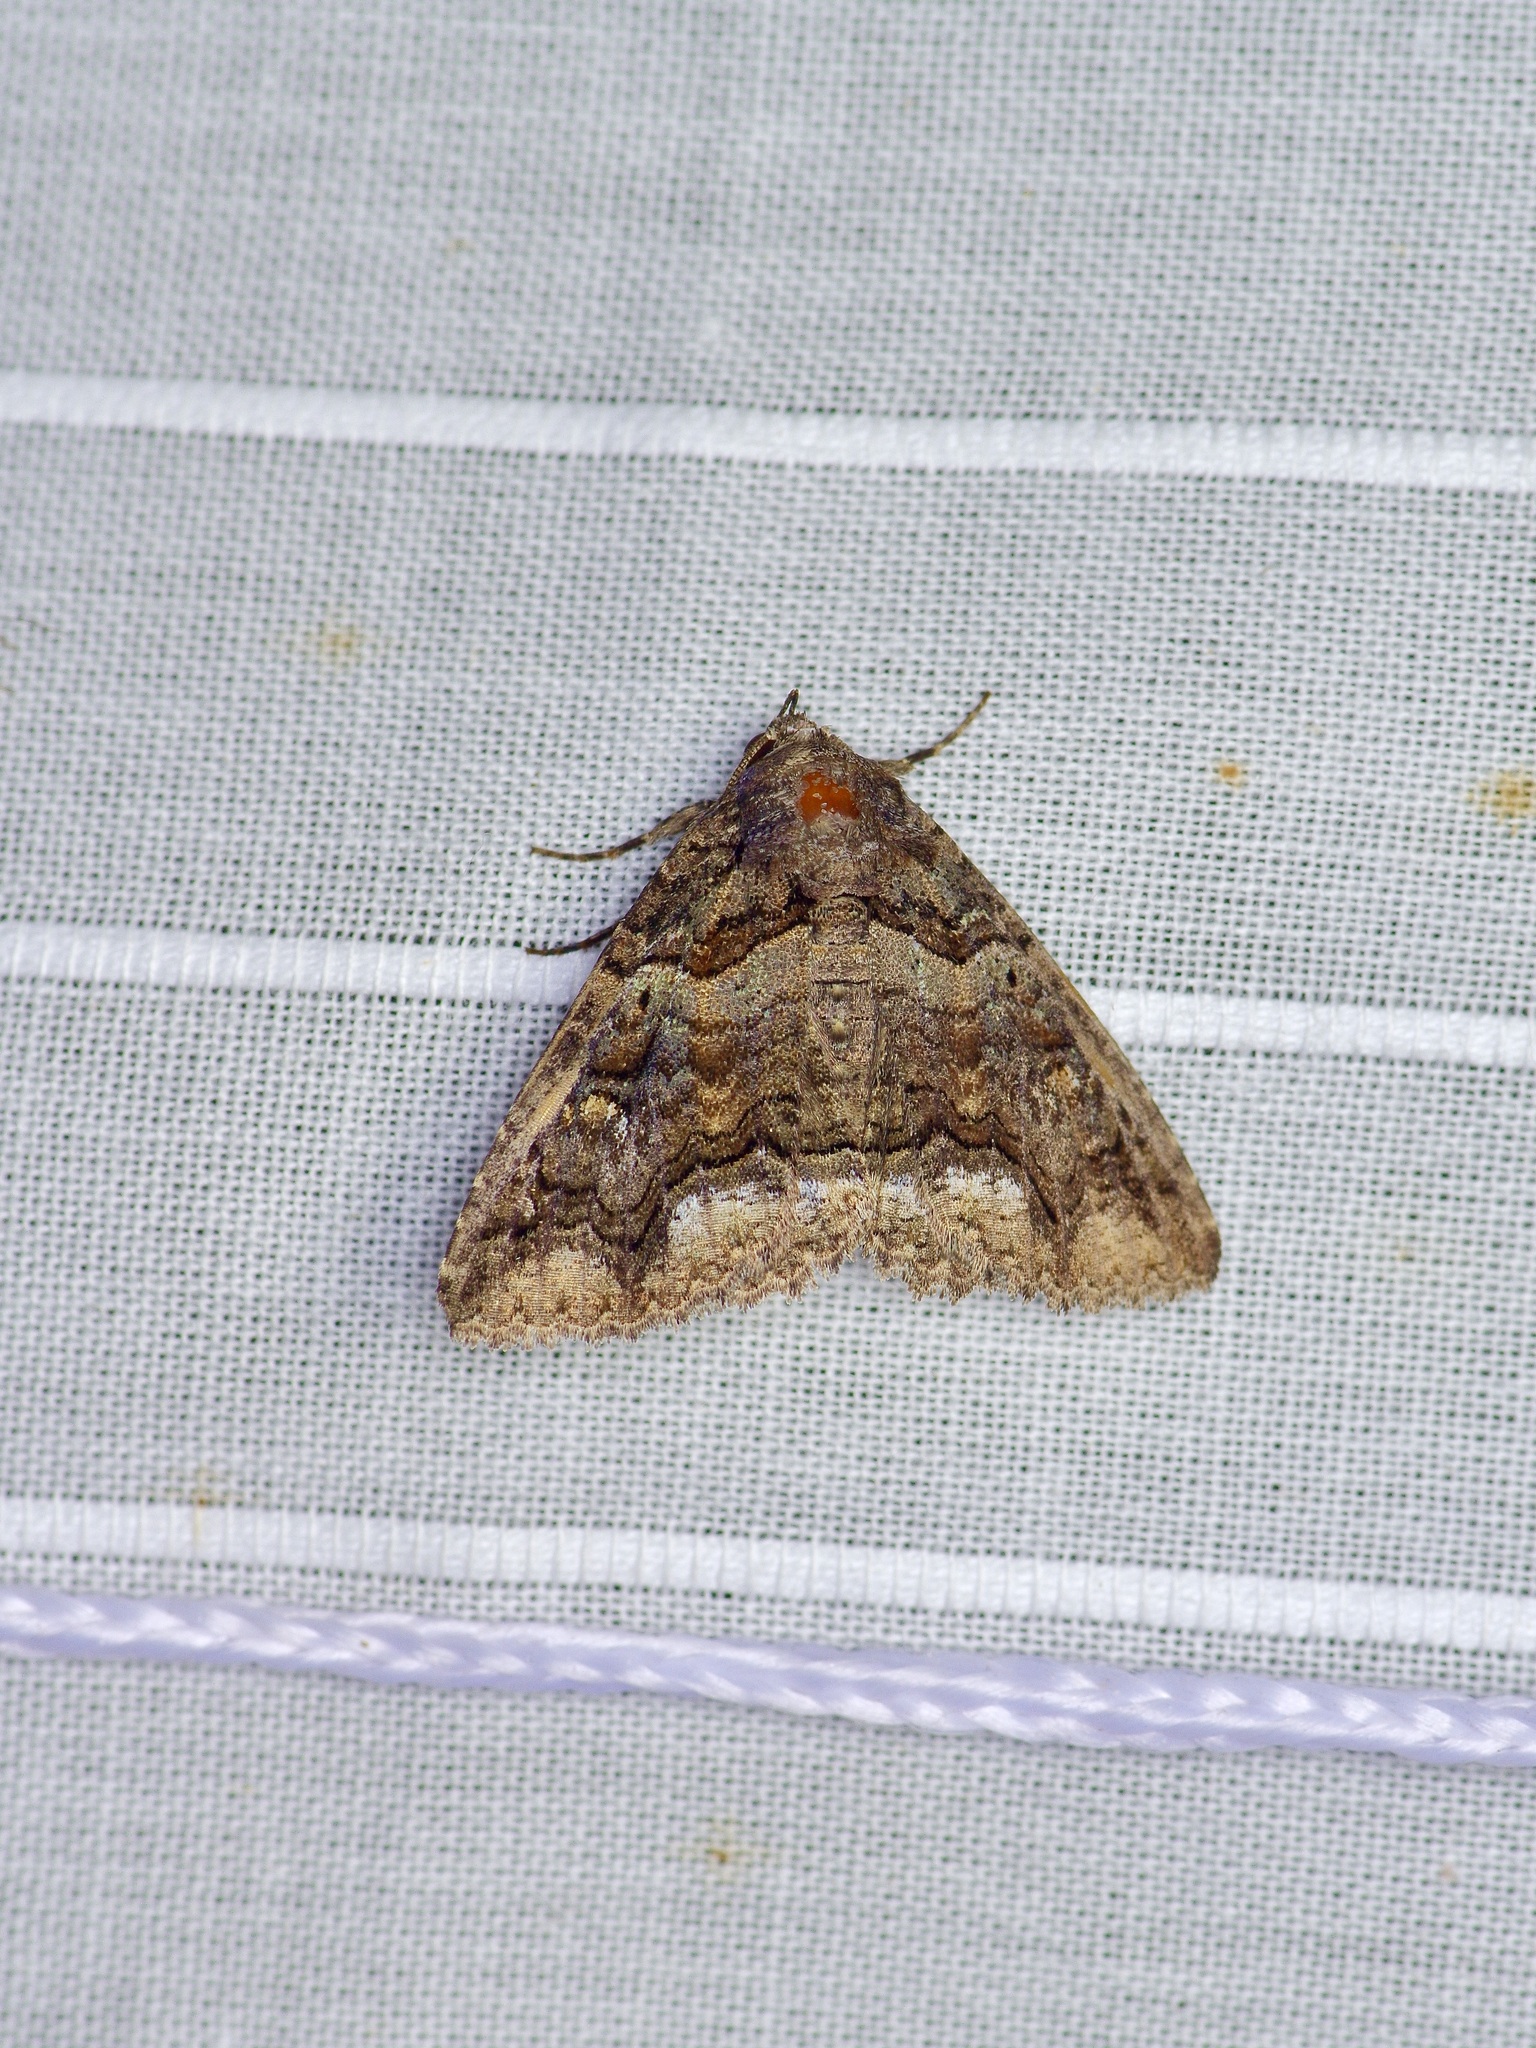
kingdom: Animalia
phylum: Arthropoda
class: Insecta
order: Lepidoptera
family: Erebidae
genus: Zale
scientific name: Zale edusina
